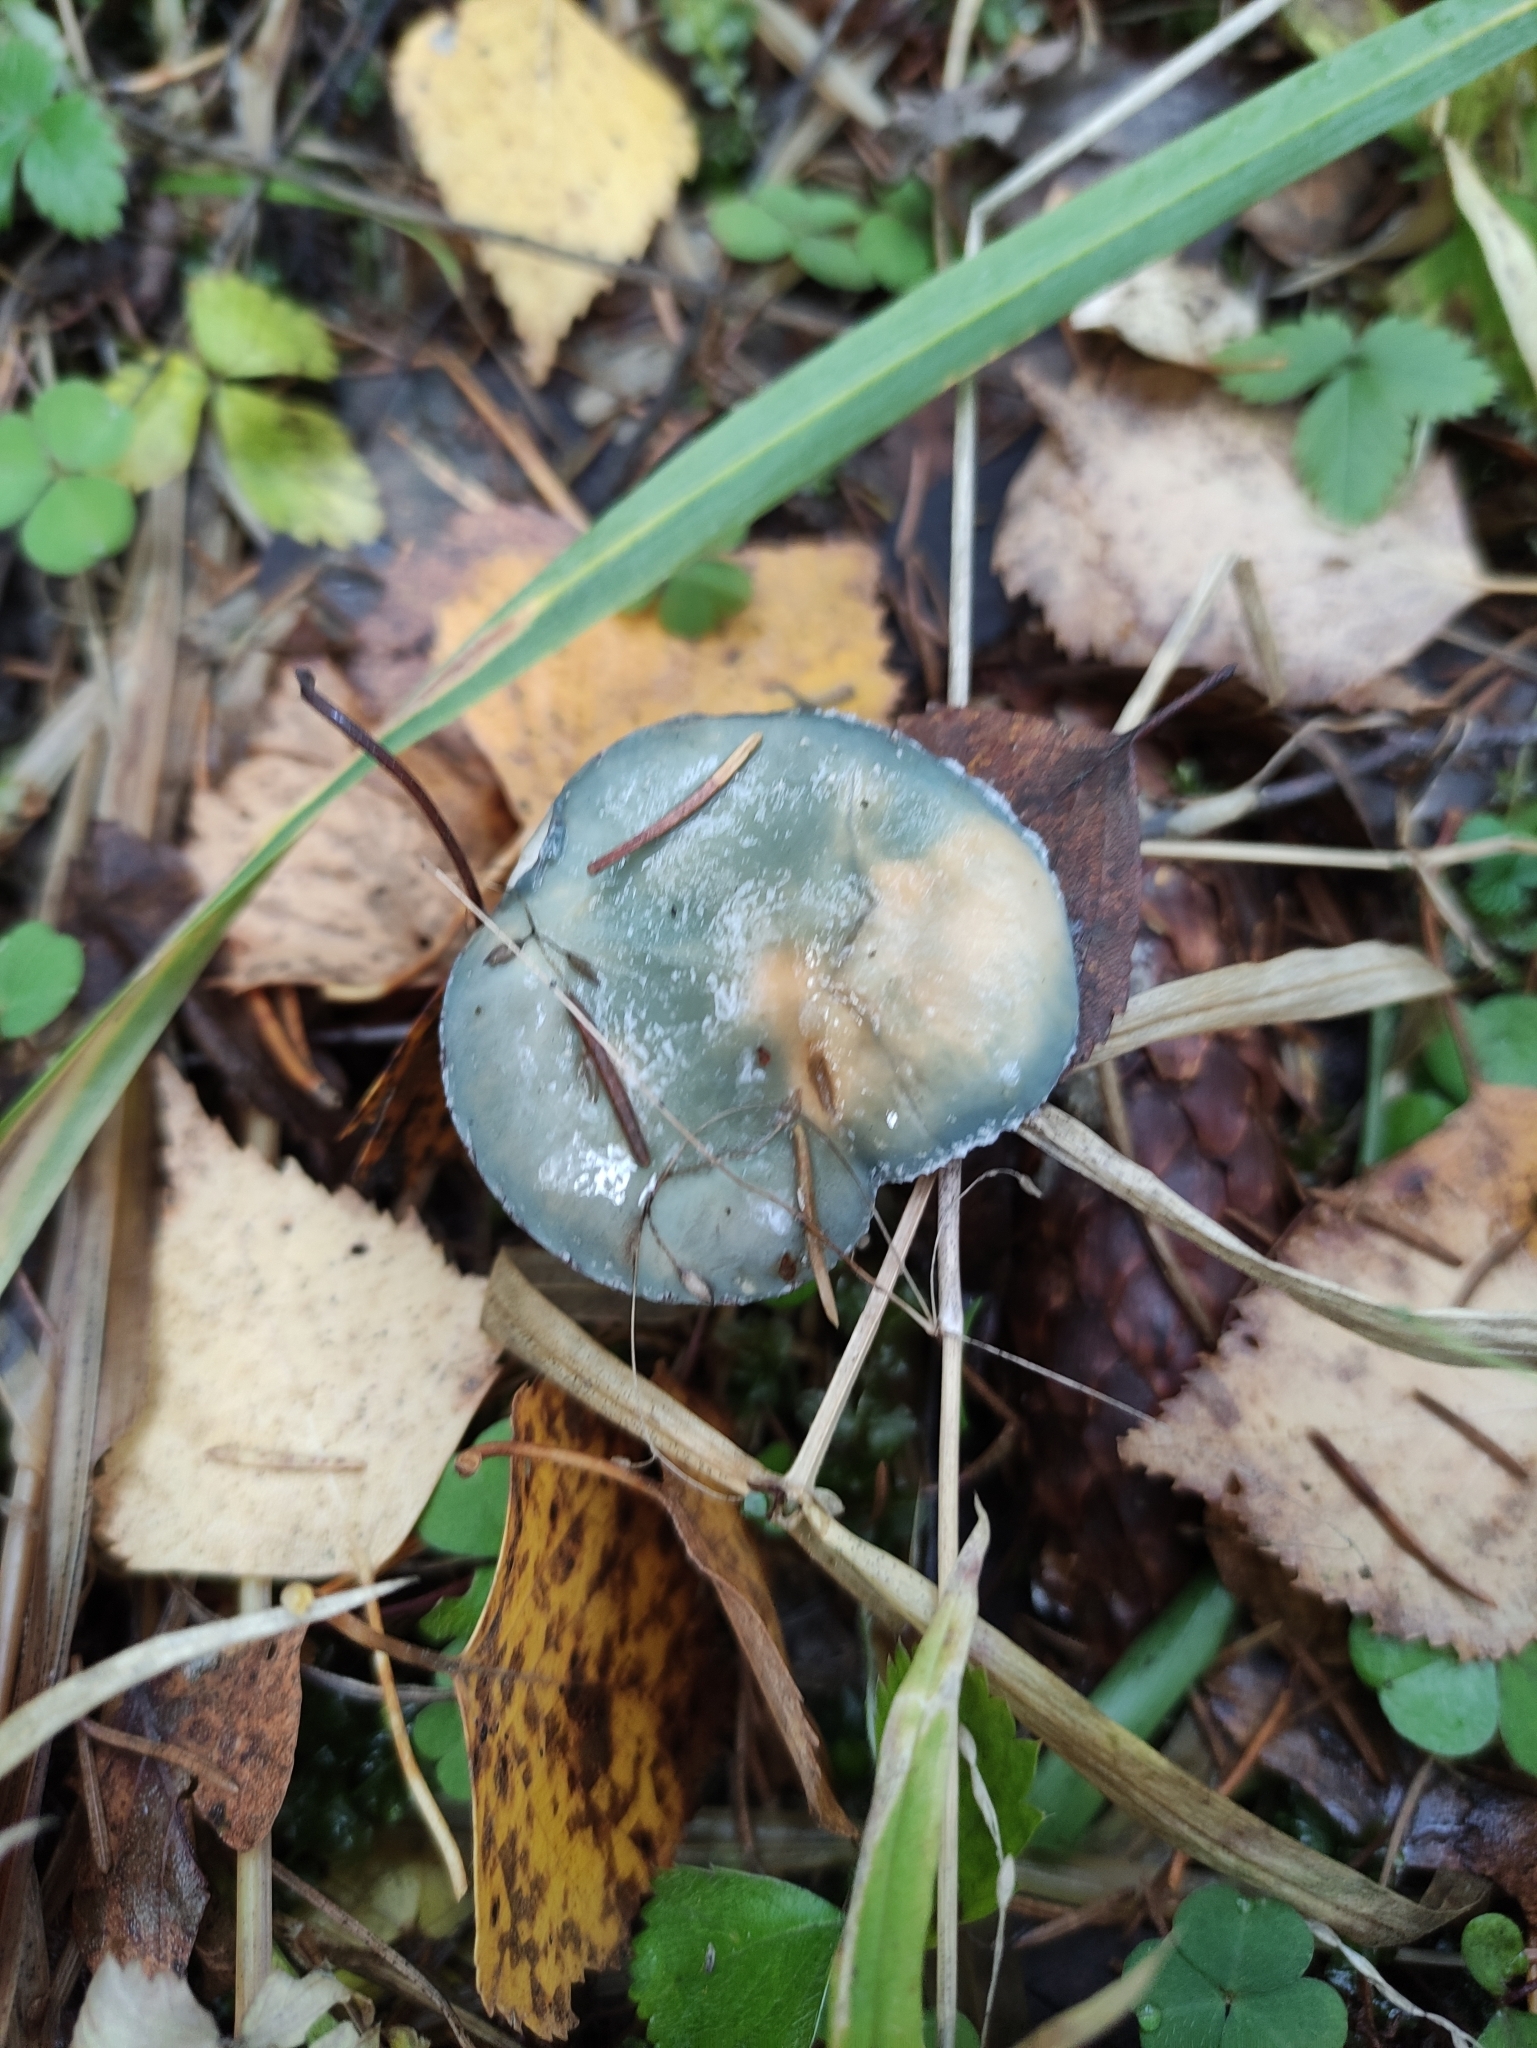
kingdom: Fungi
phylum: Basidiomycota
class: Agaricomycetes
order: Agaricales
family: Strophariaceae
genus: Stropharia
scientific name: Stropharia aeruginosa
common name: Verdigris roundhead
